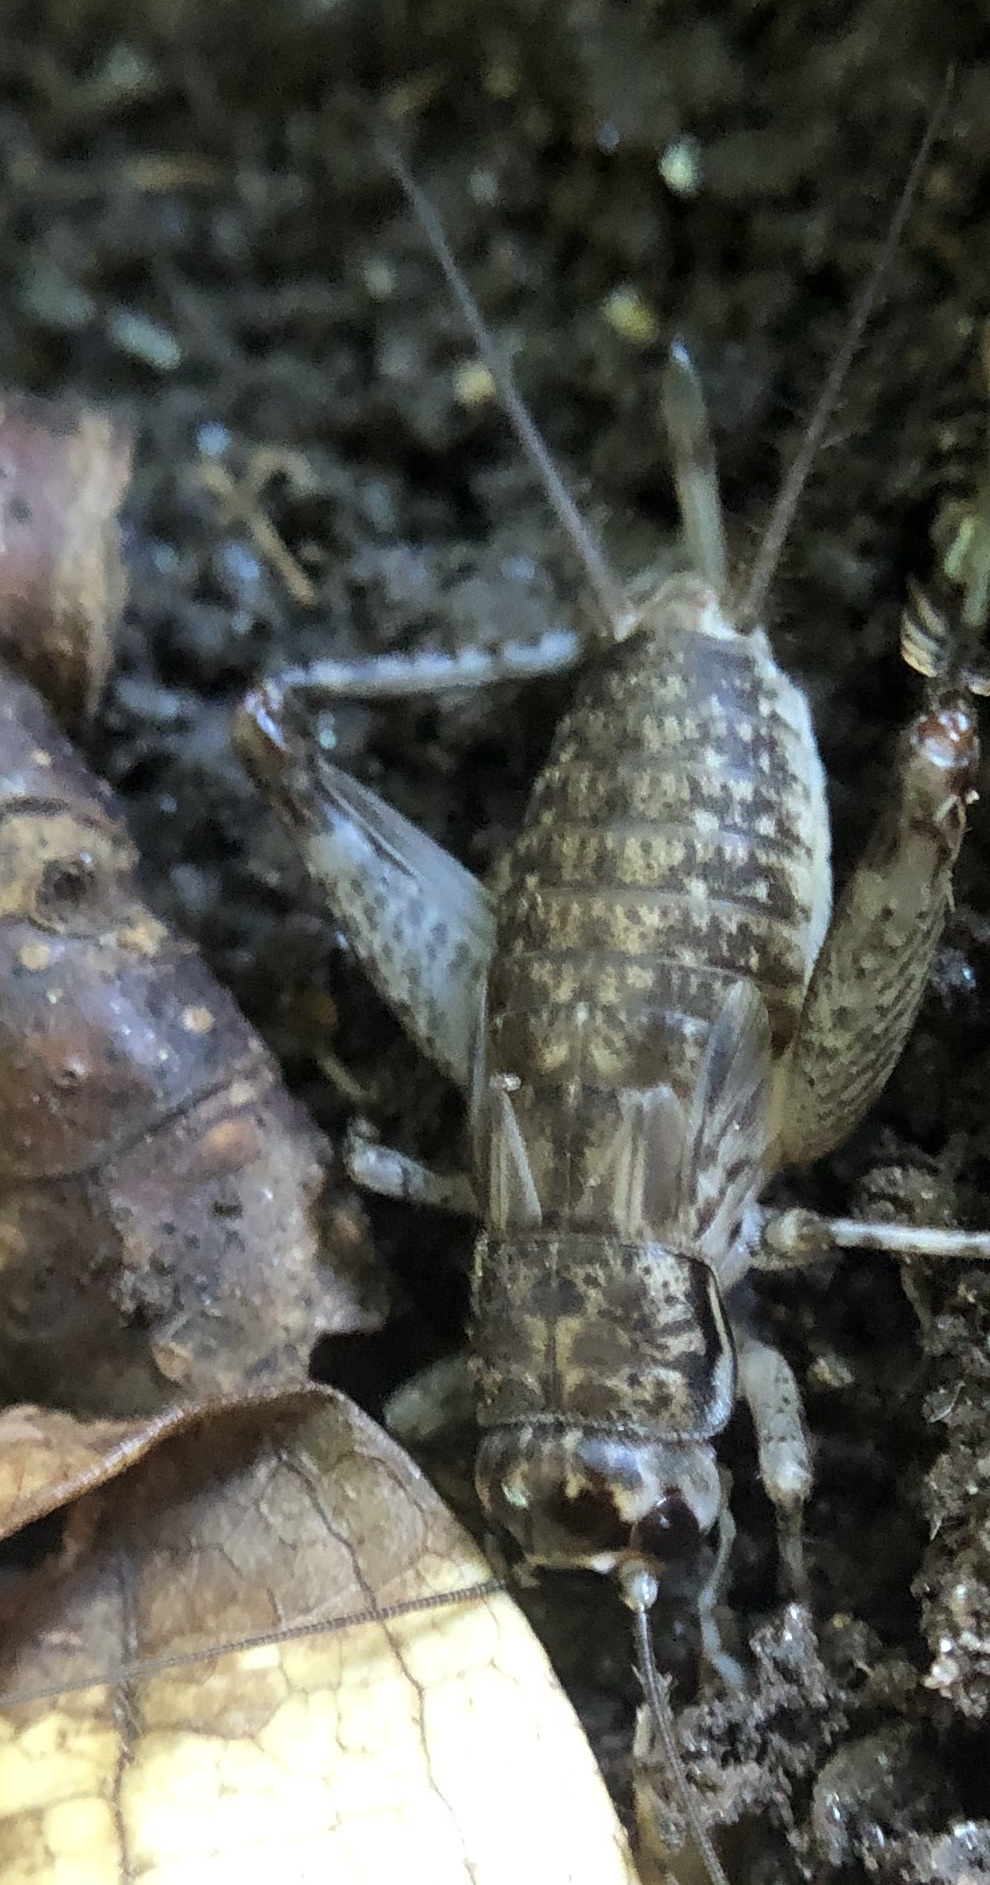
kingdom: Animalia
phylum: Arthropoda
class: Insecta
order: Orthoptera
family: Gryllidae
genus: Velarifictorus
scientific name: Velarifictorus micado
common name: Japanese burrowing cricket
